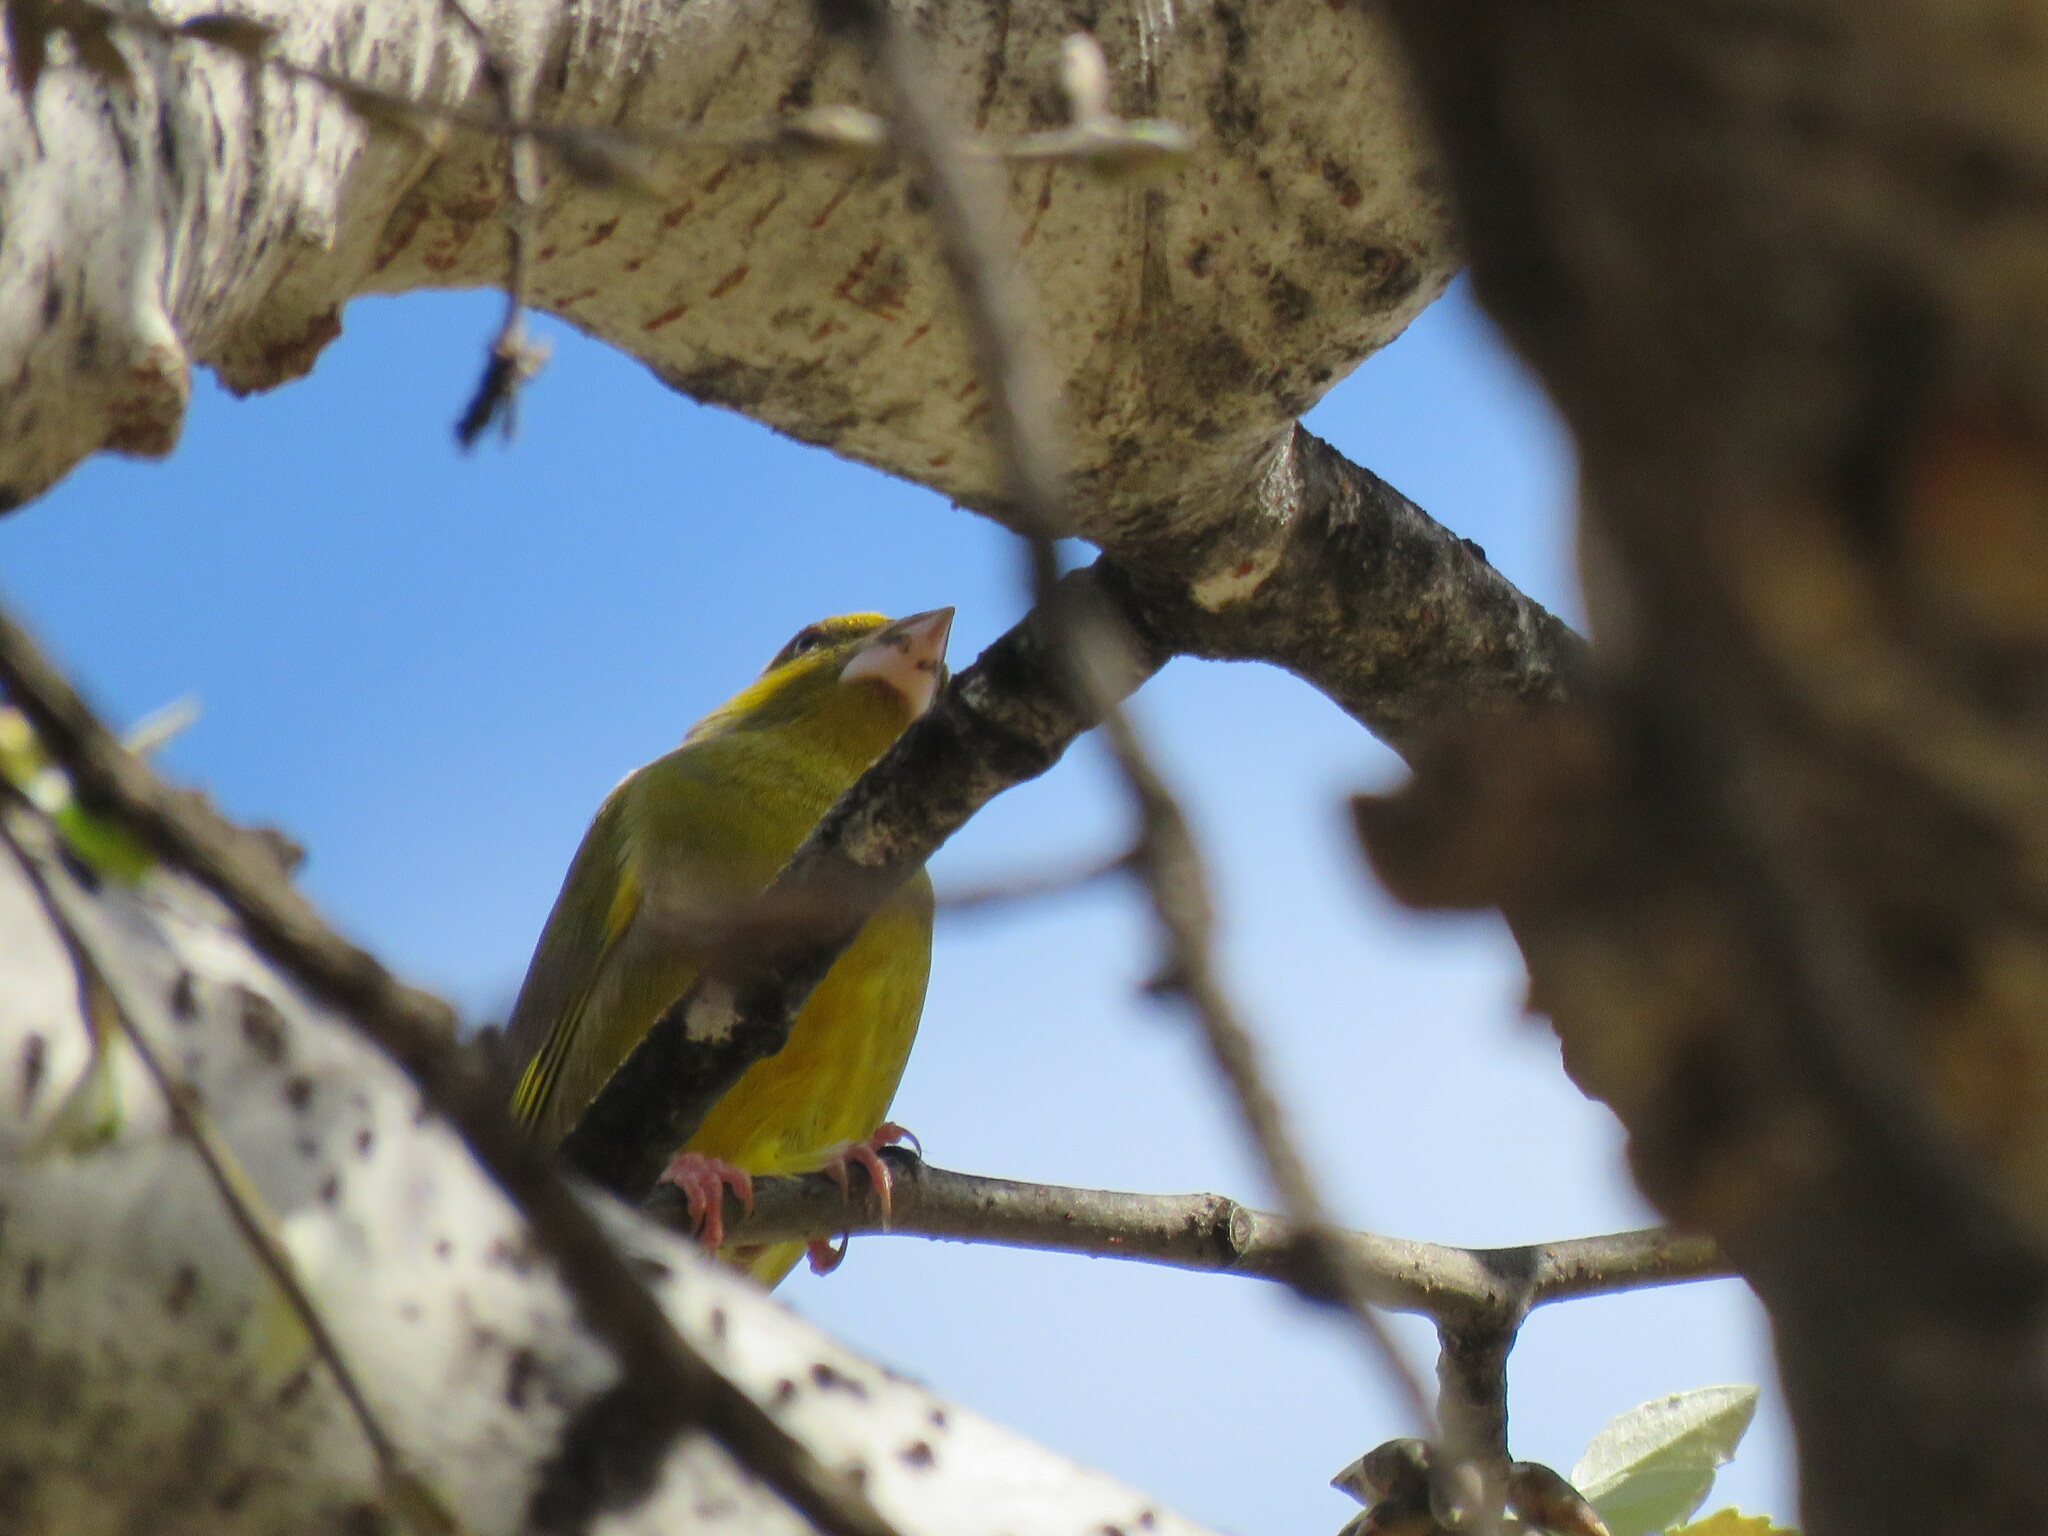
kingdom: Plantae
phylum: Tracheophyta
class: Liliopsida
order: Poales
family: Poaceae
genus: Chloris
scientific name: Chloris chloris
